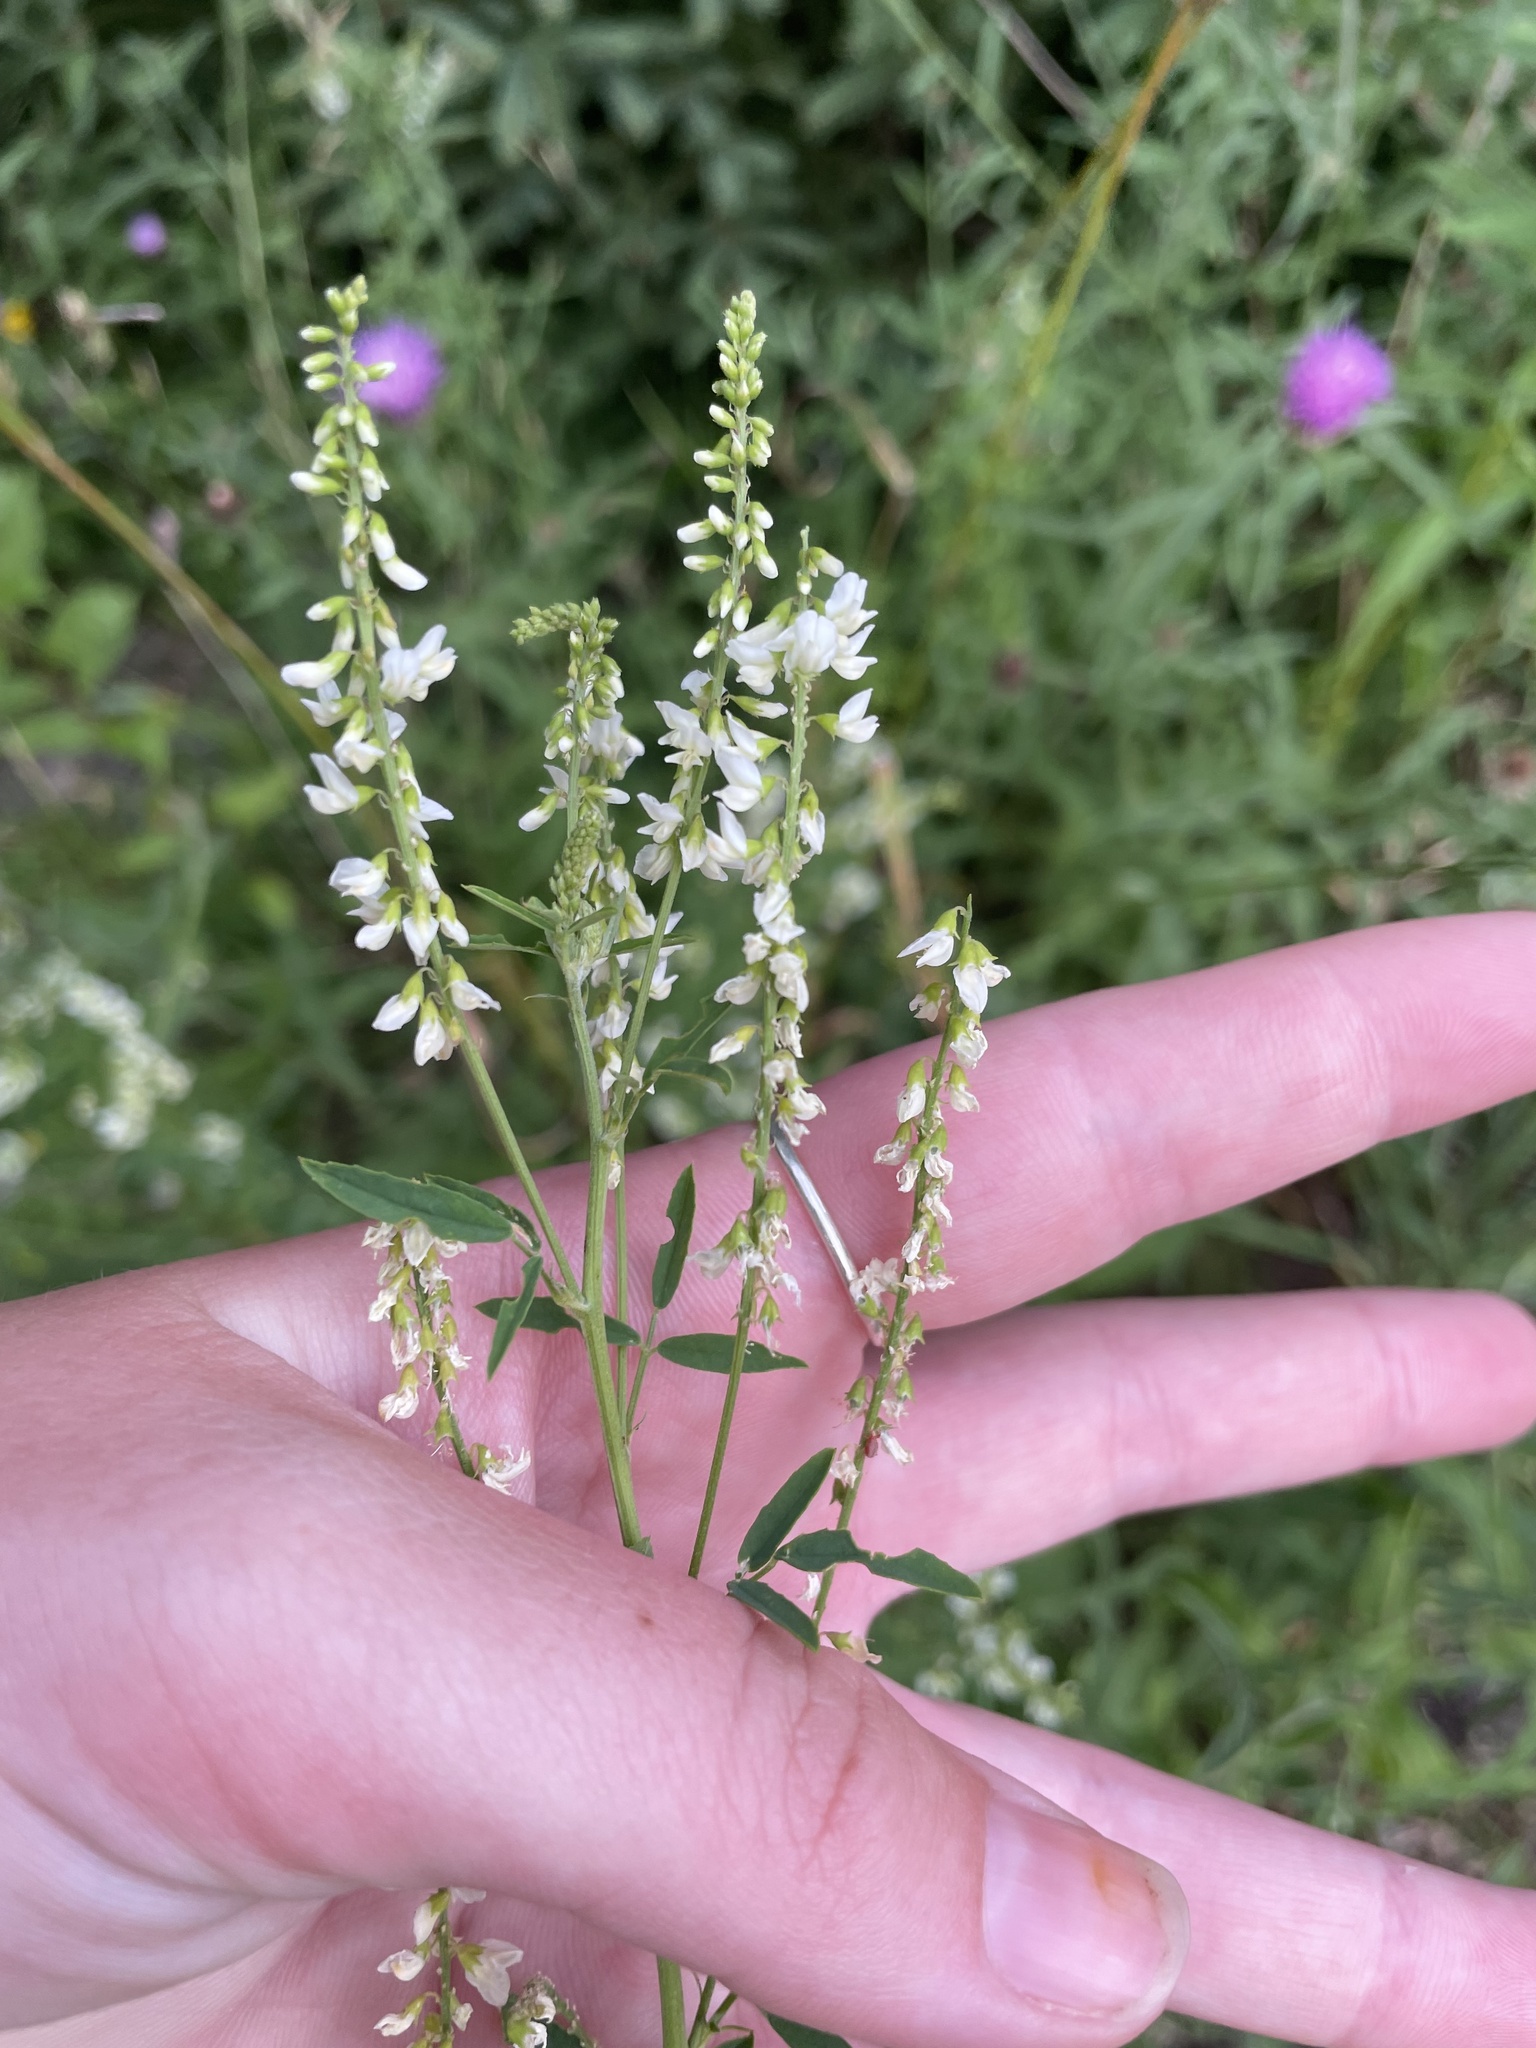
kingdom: Plantae
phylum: Tracheophyta
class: Magnoliopsida
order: Fabales
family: Fabaceae
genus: Melilotus
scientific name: Melilotus albus
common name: White melilot
